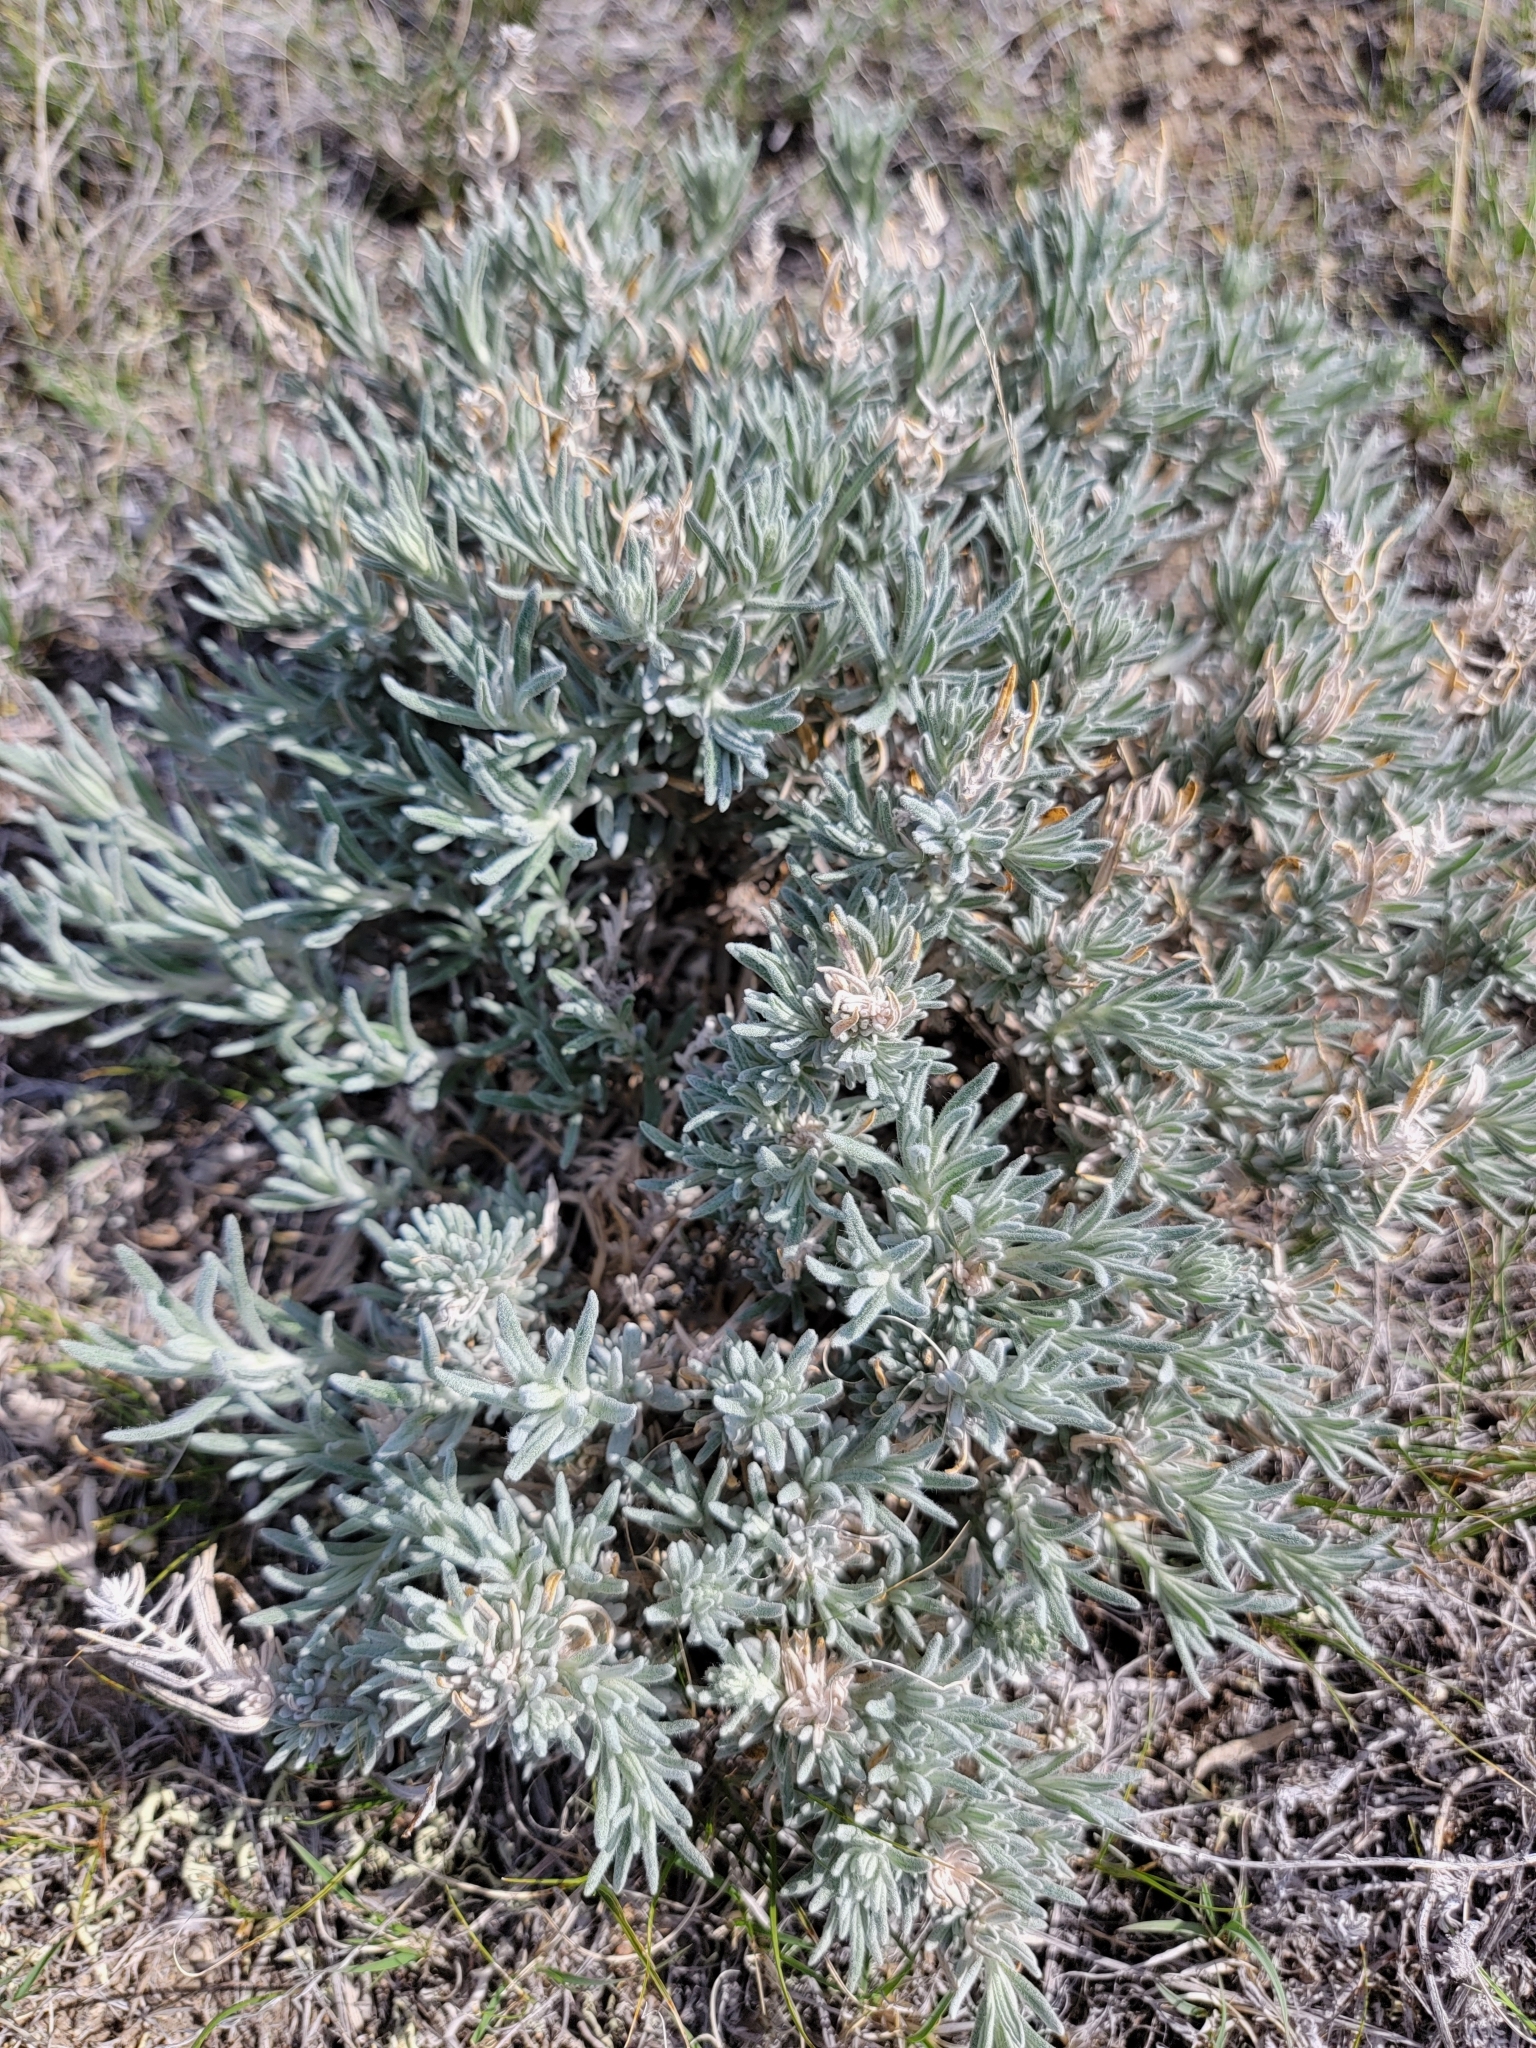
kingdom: Plantae
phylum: Tracheophyta
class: Magnoliopsida
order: Caryophyllales
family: Amaranthaceae
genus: Krascheninnikovia
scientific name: Krascheninnikovia lanata
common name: Winterfat
